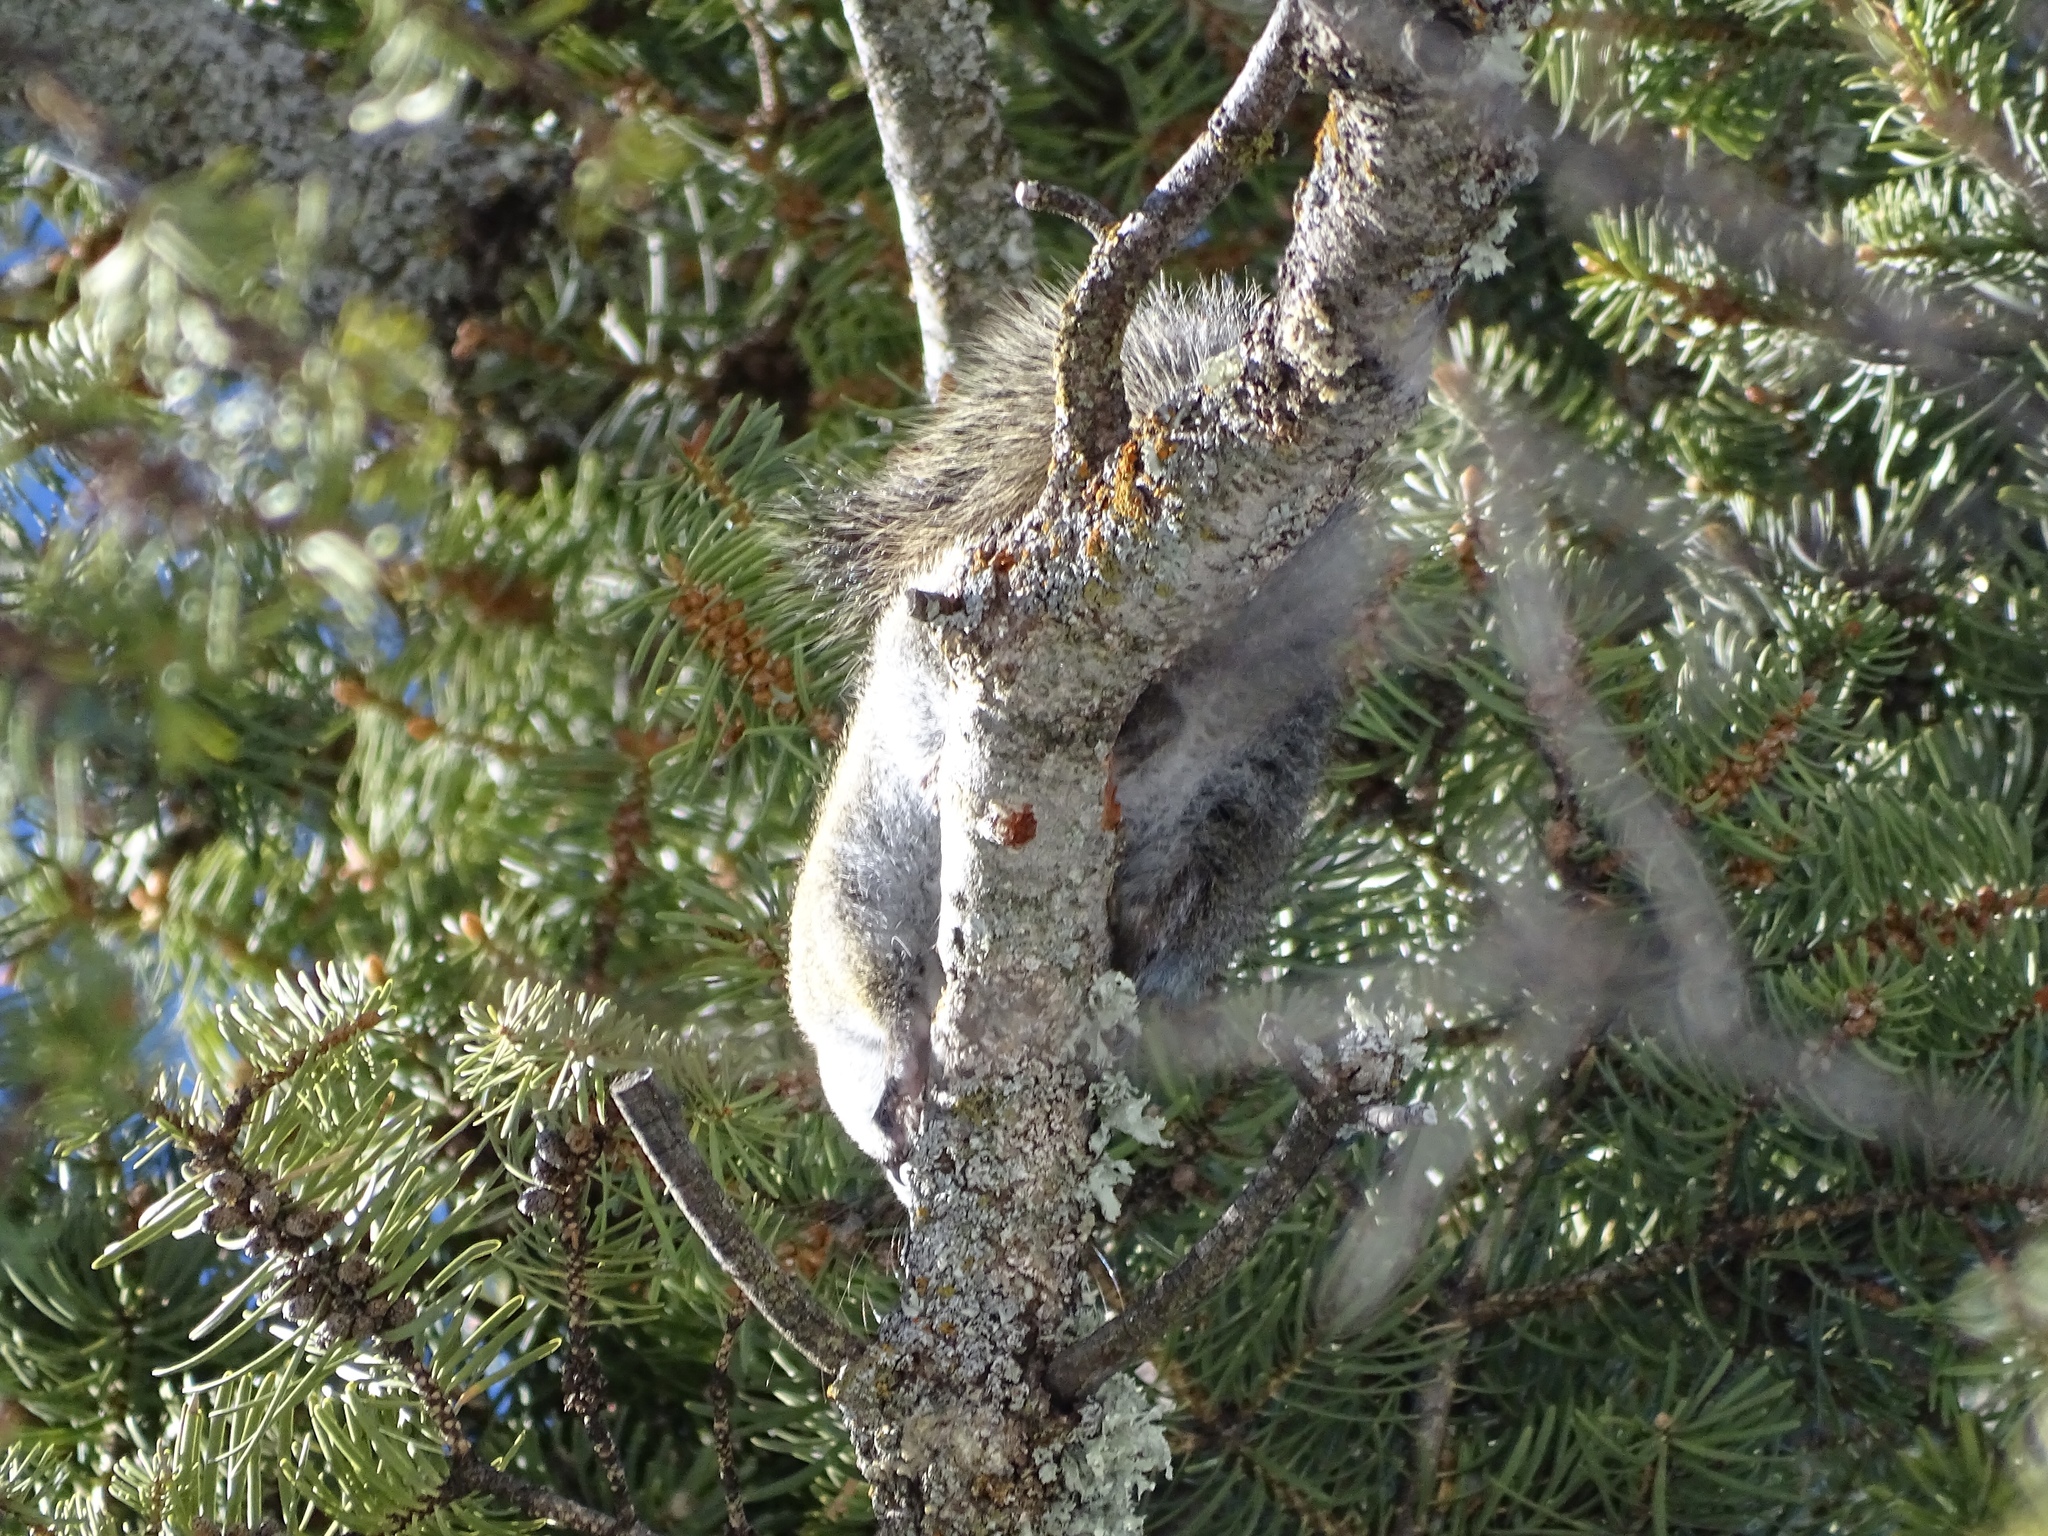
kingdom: Animalia
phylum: Chordata
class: Mammalia
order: Rodentia
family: Sciuridae
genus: Tamiasciurus
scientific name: Tamiasciurus hudsonicus
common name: Red squirrel
